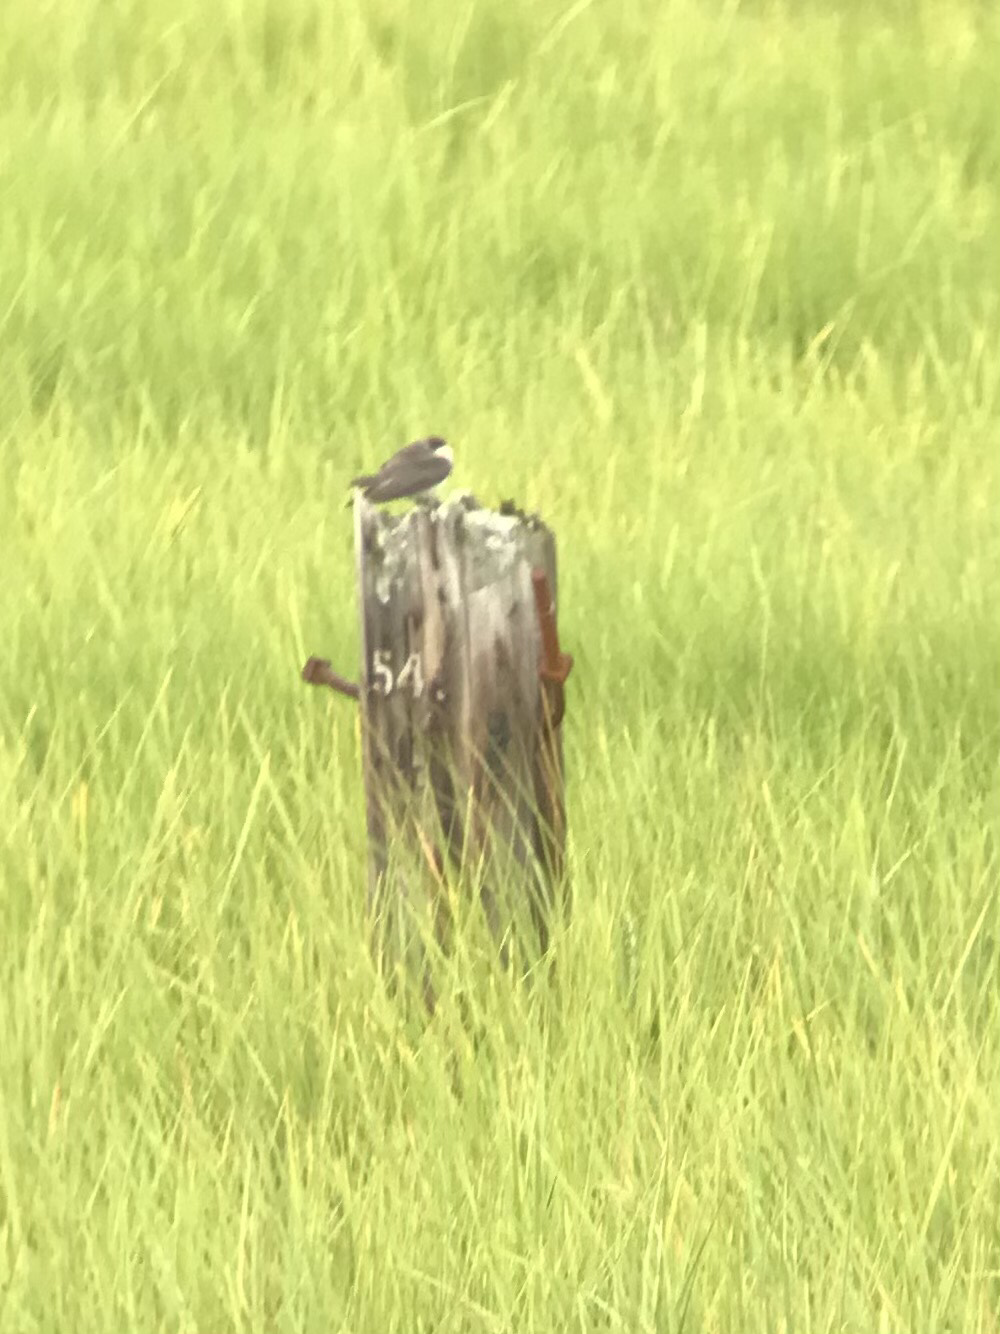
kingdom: Animalia
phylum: Chordata
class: Aves
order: Passeriformes
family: Hirundinidae
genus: Tachycineta
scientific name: Tachycineta bicolor
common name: Tree swallow
